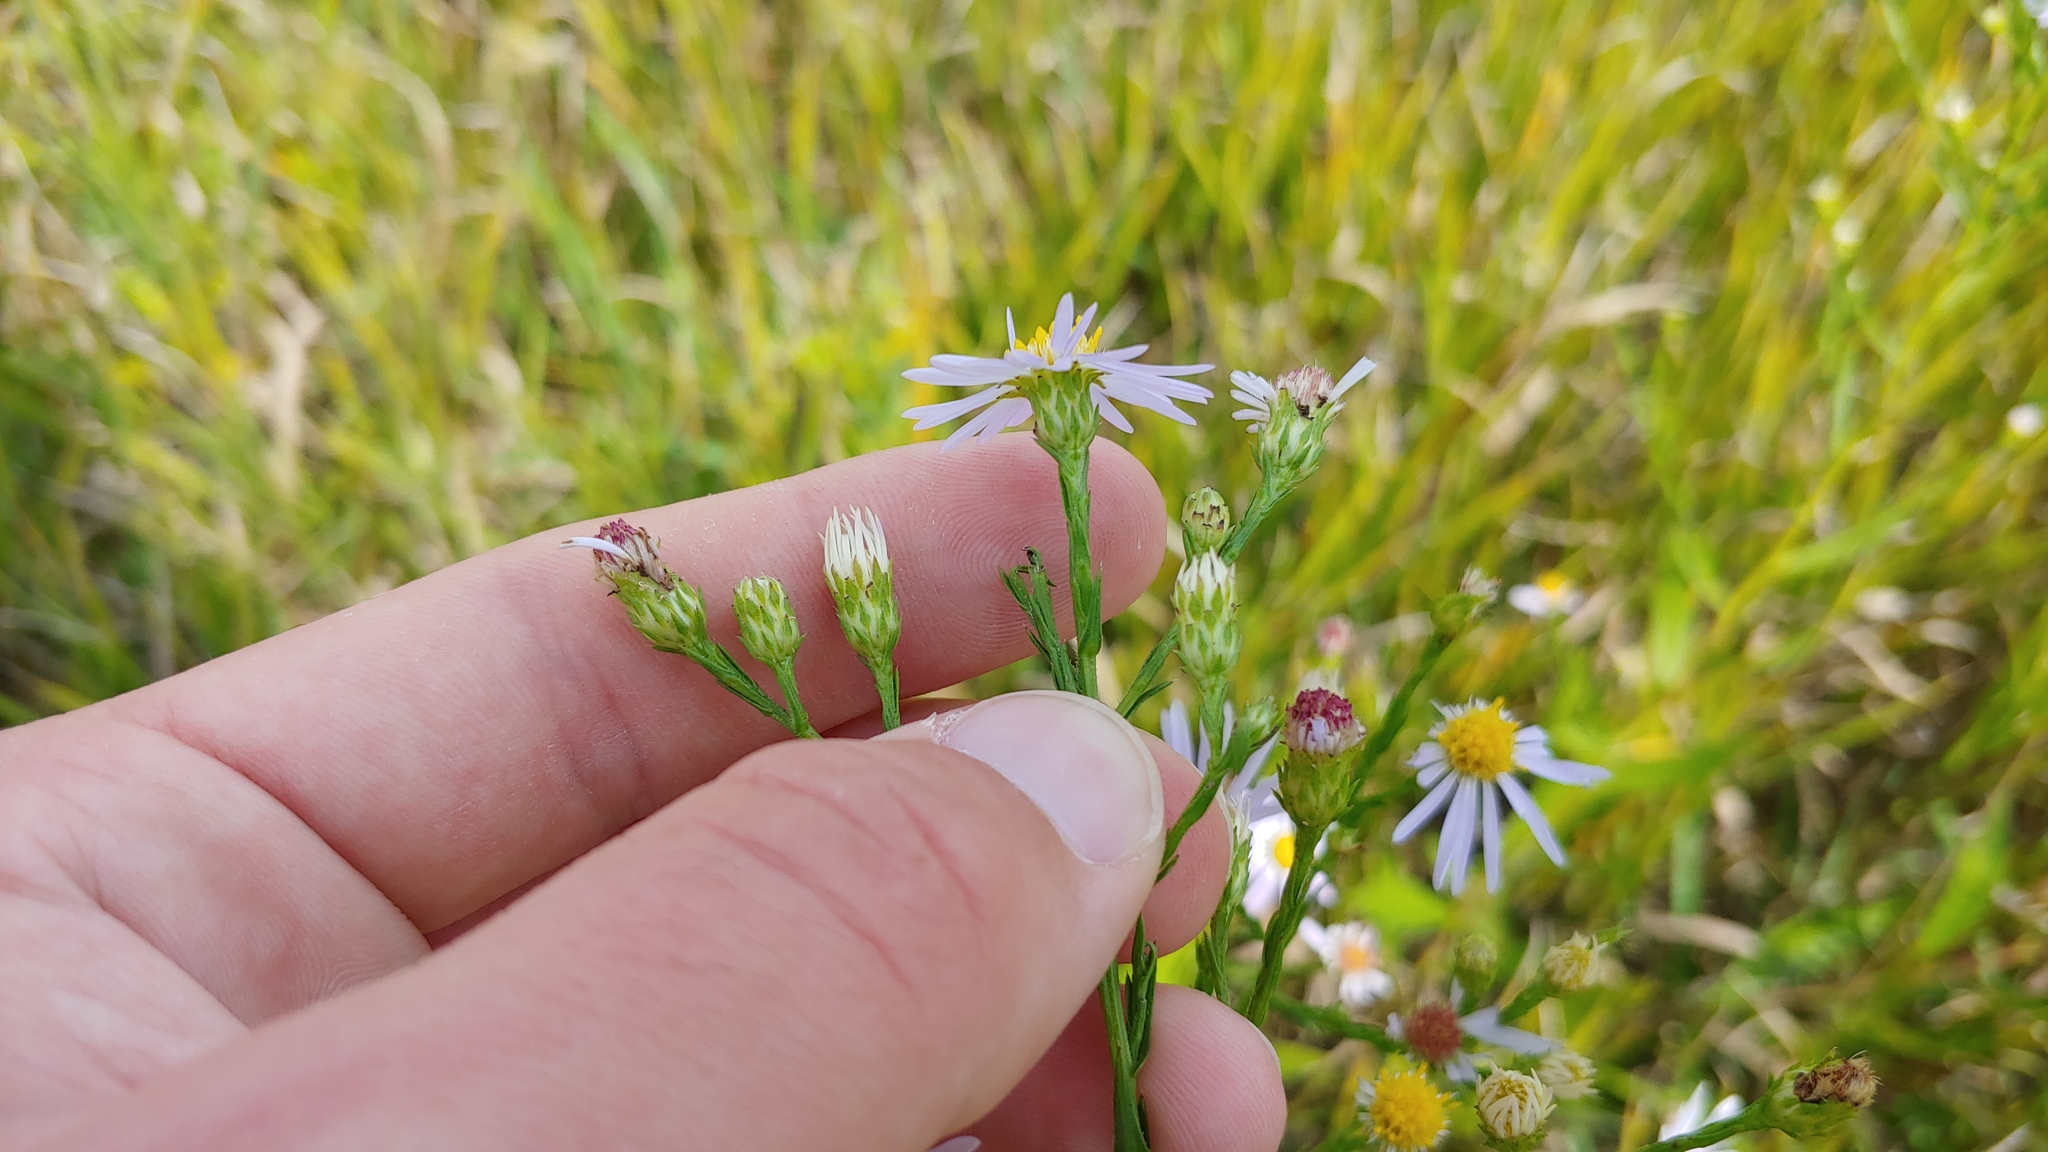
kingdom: Plantae
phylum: Tracheophyta
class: Magnoliopsida
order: Asterales
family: Asteraceae
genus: Symphyotrichum
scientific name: Symphyotrichum oolentangiense
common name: Azure aster
